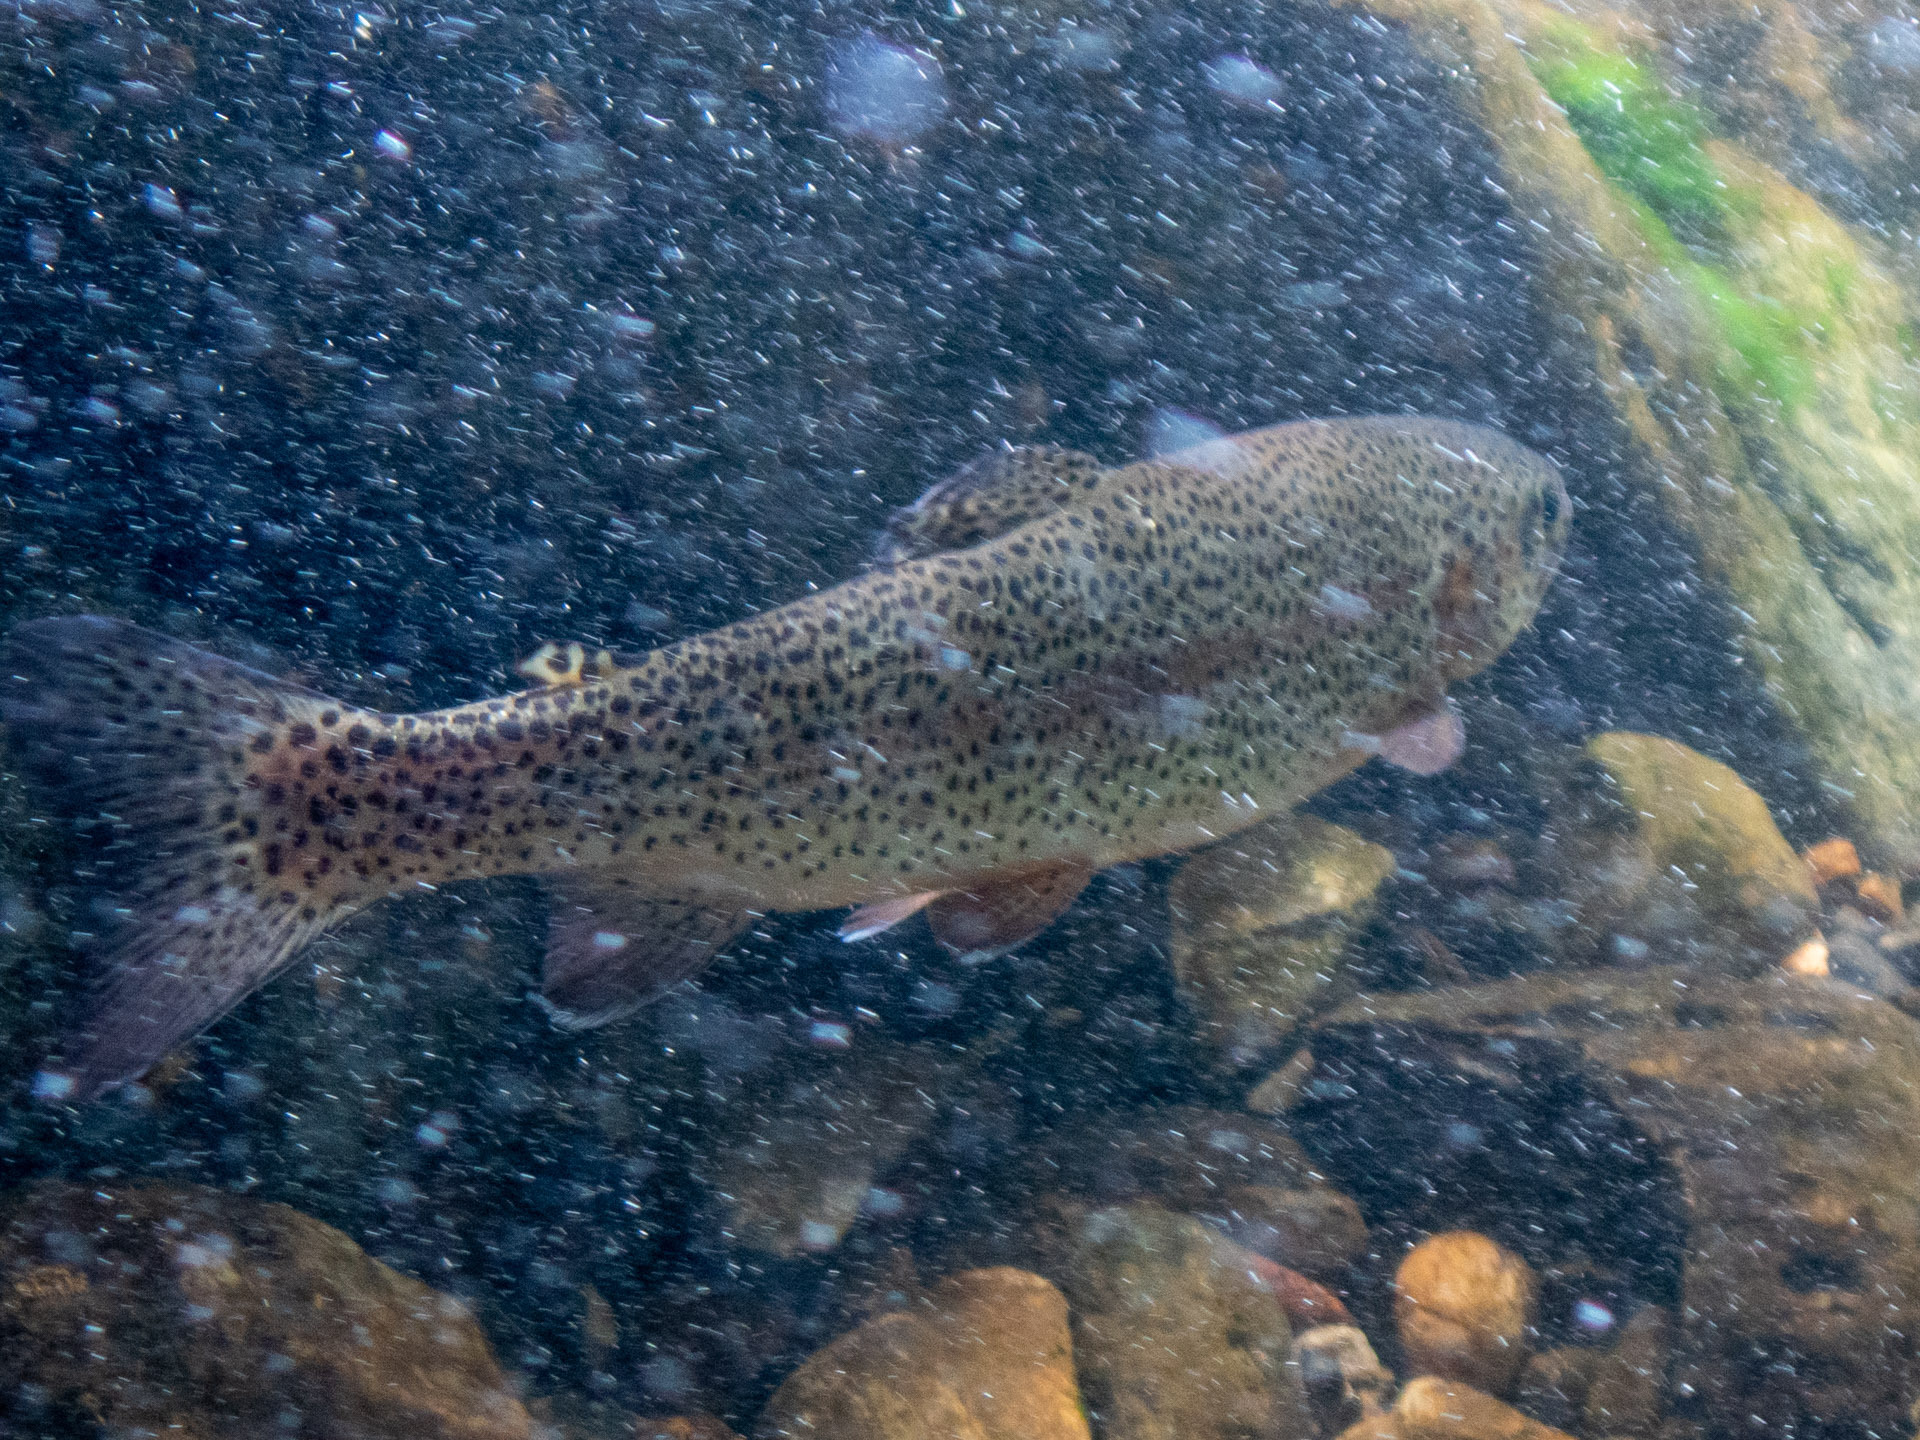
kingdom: Animalia
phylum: Chordata
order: Salmoniformes
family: Salmonidae
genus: Oncorhynchus
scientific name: Oncorhynchus mykiss
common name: Rainbow trout
